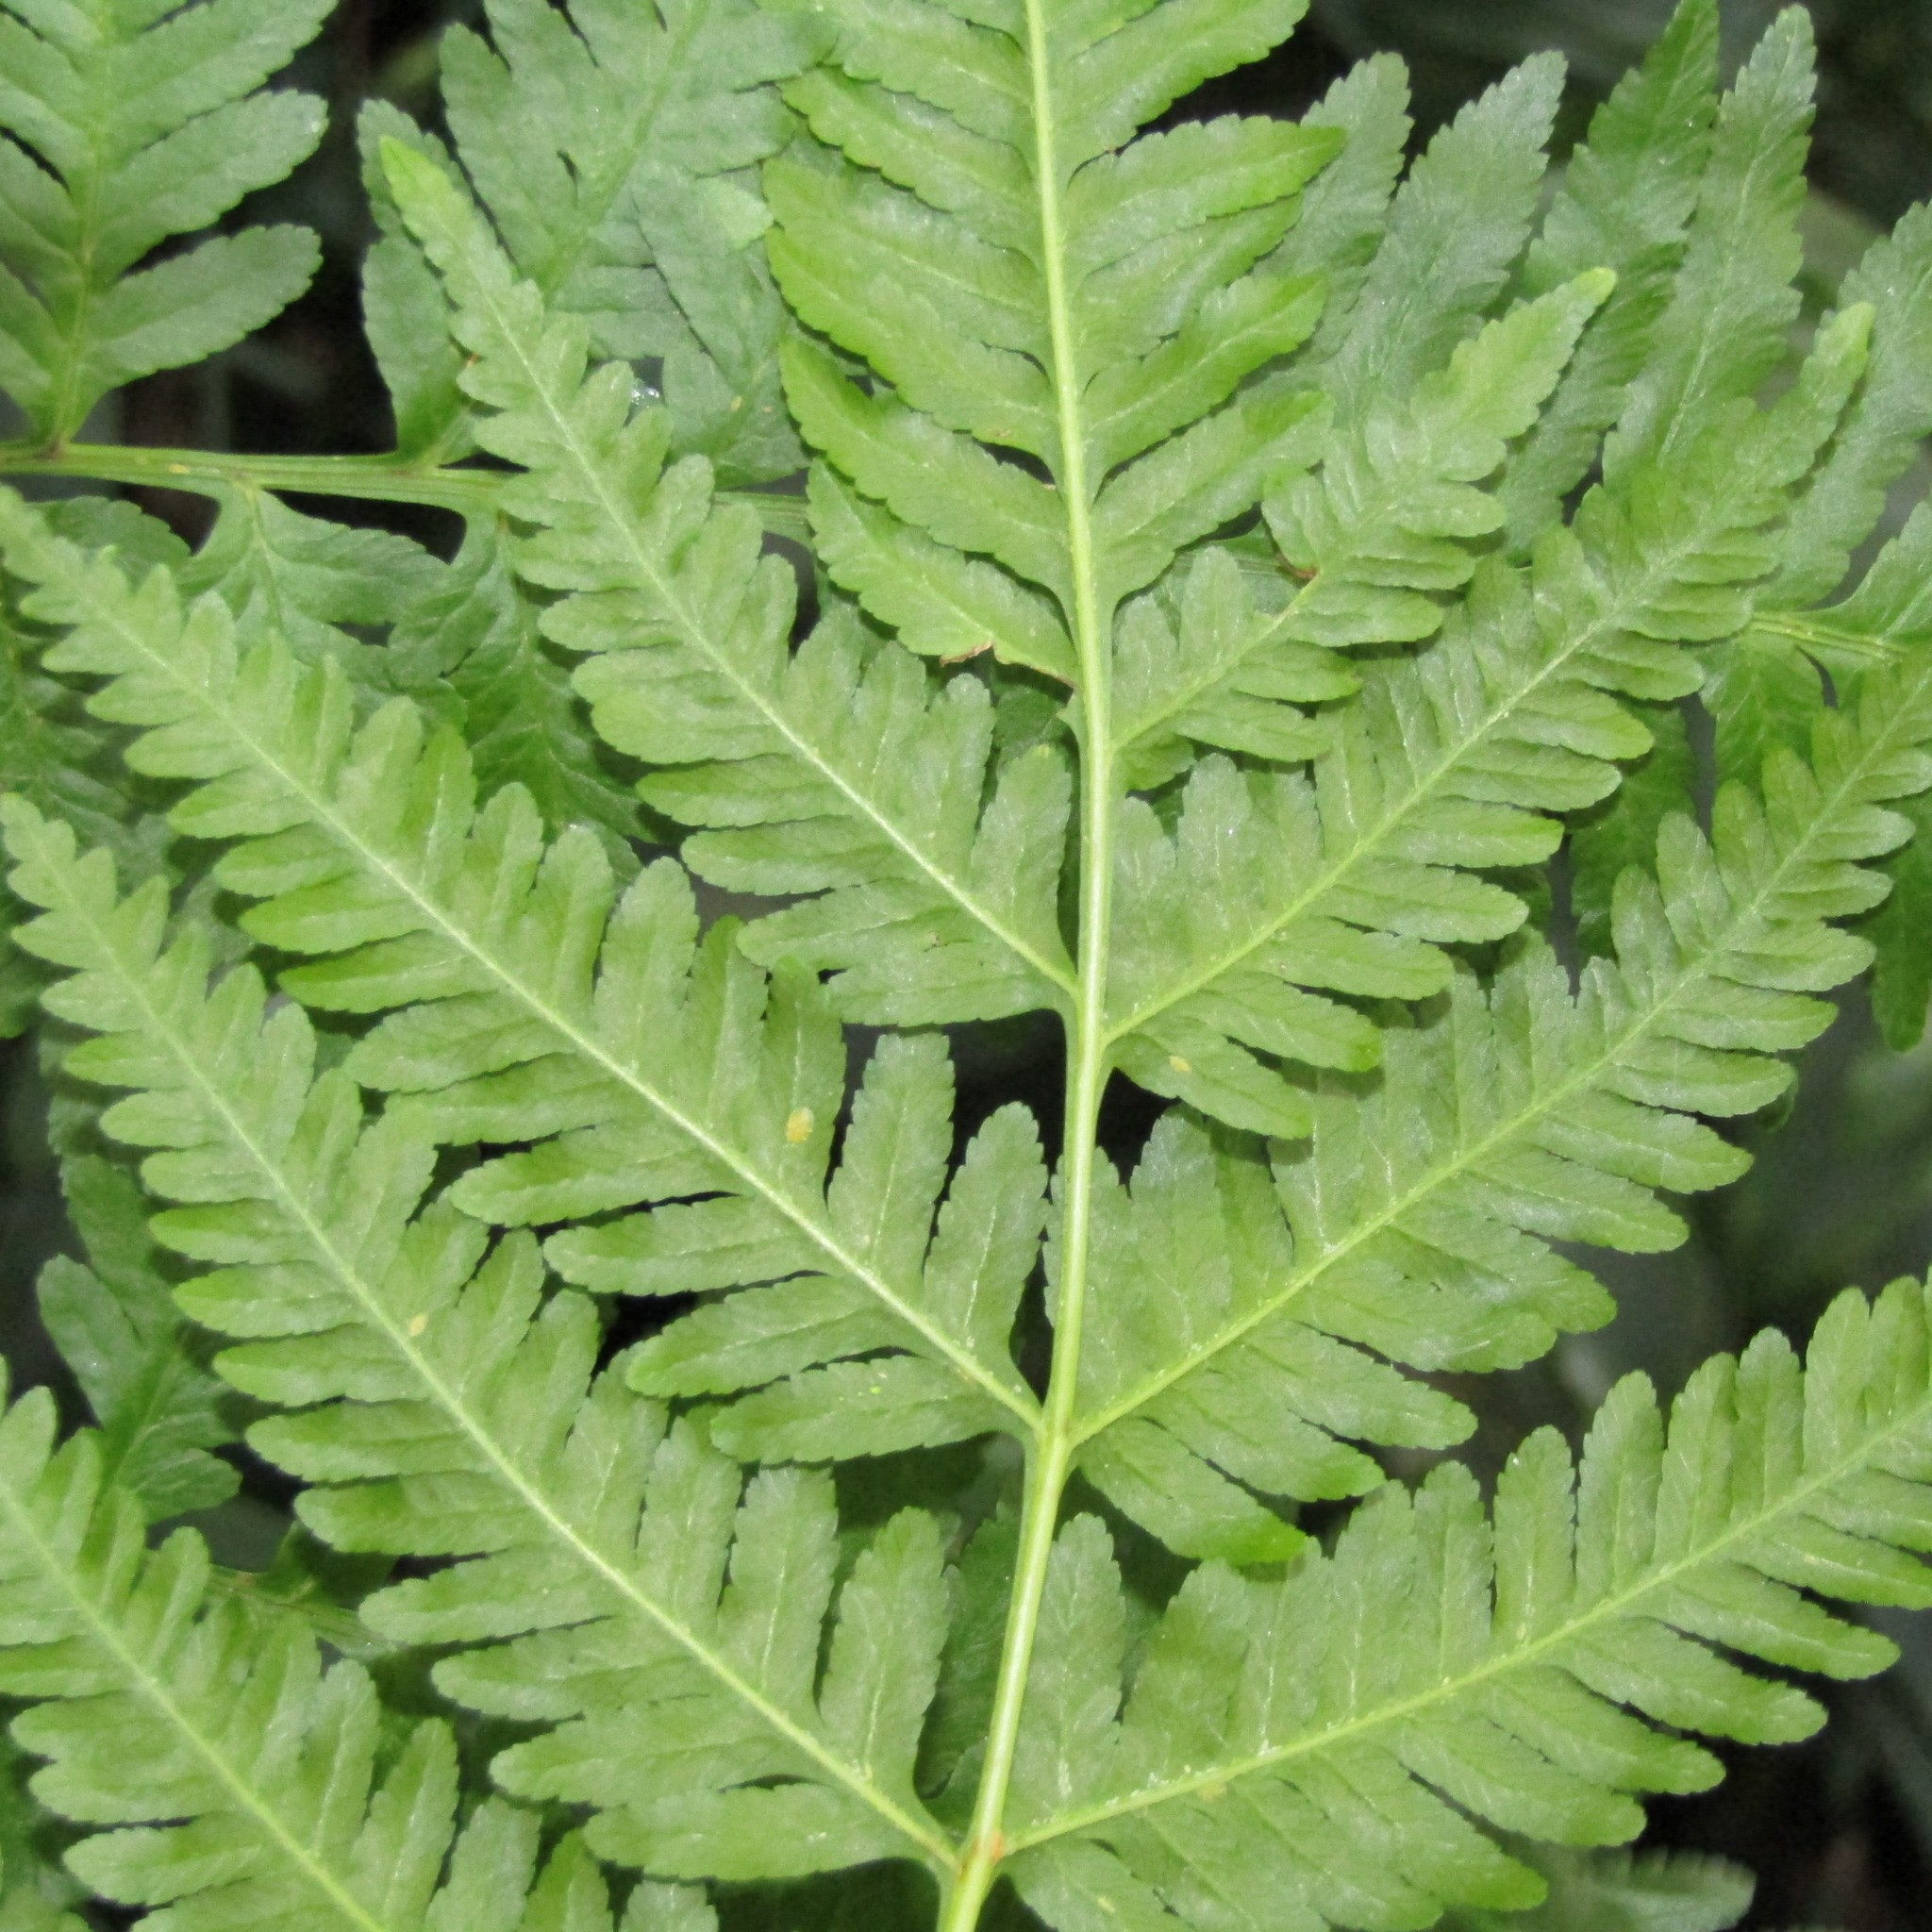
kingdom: Plantae
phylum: Tracheophyta
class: Polypodiopsida
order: Polypodiales
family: Pteridaceae
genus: Pteris
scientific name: Pteris tremula
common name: Australian brake
